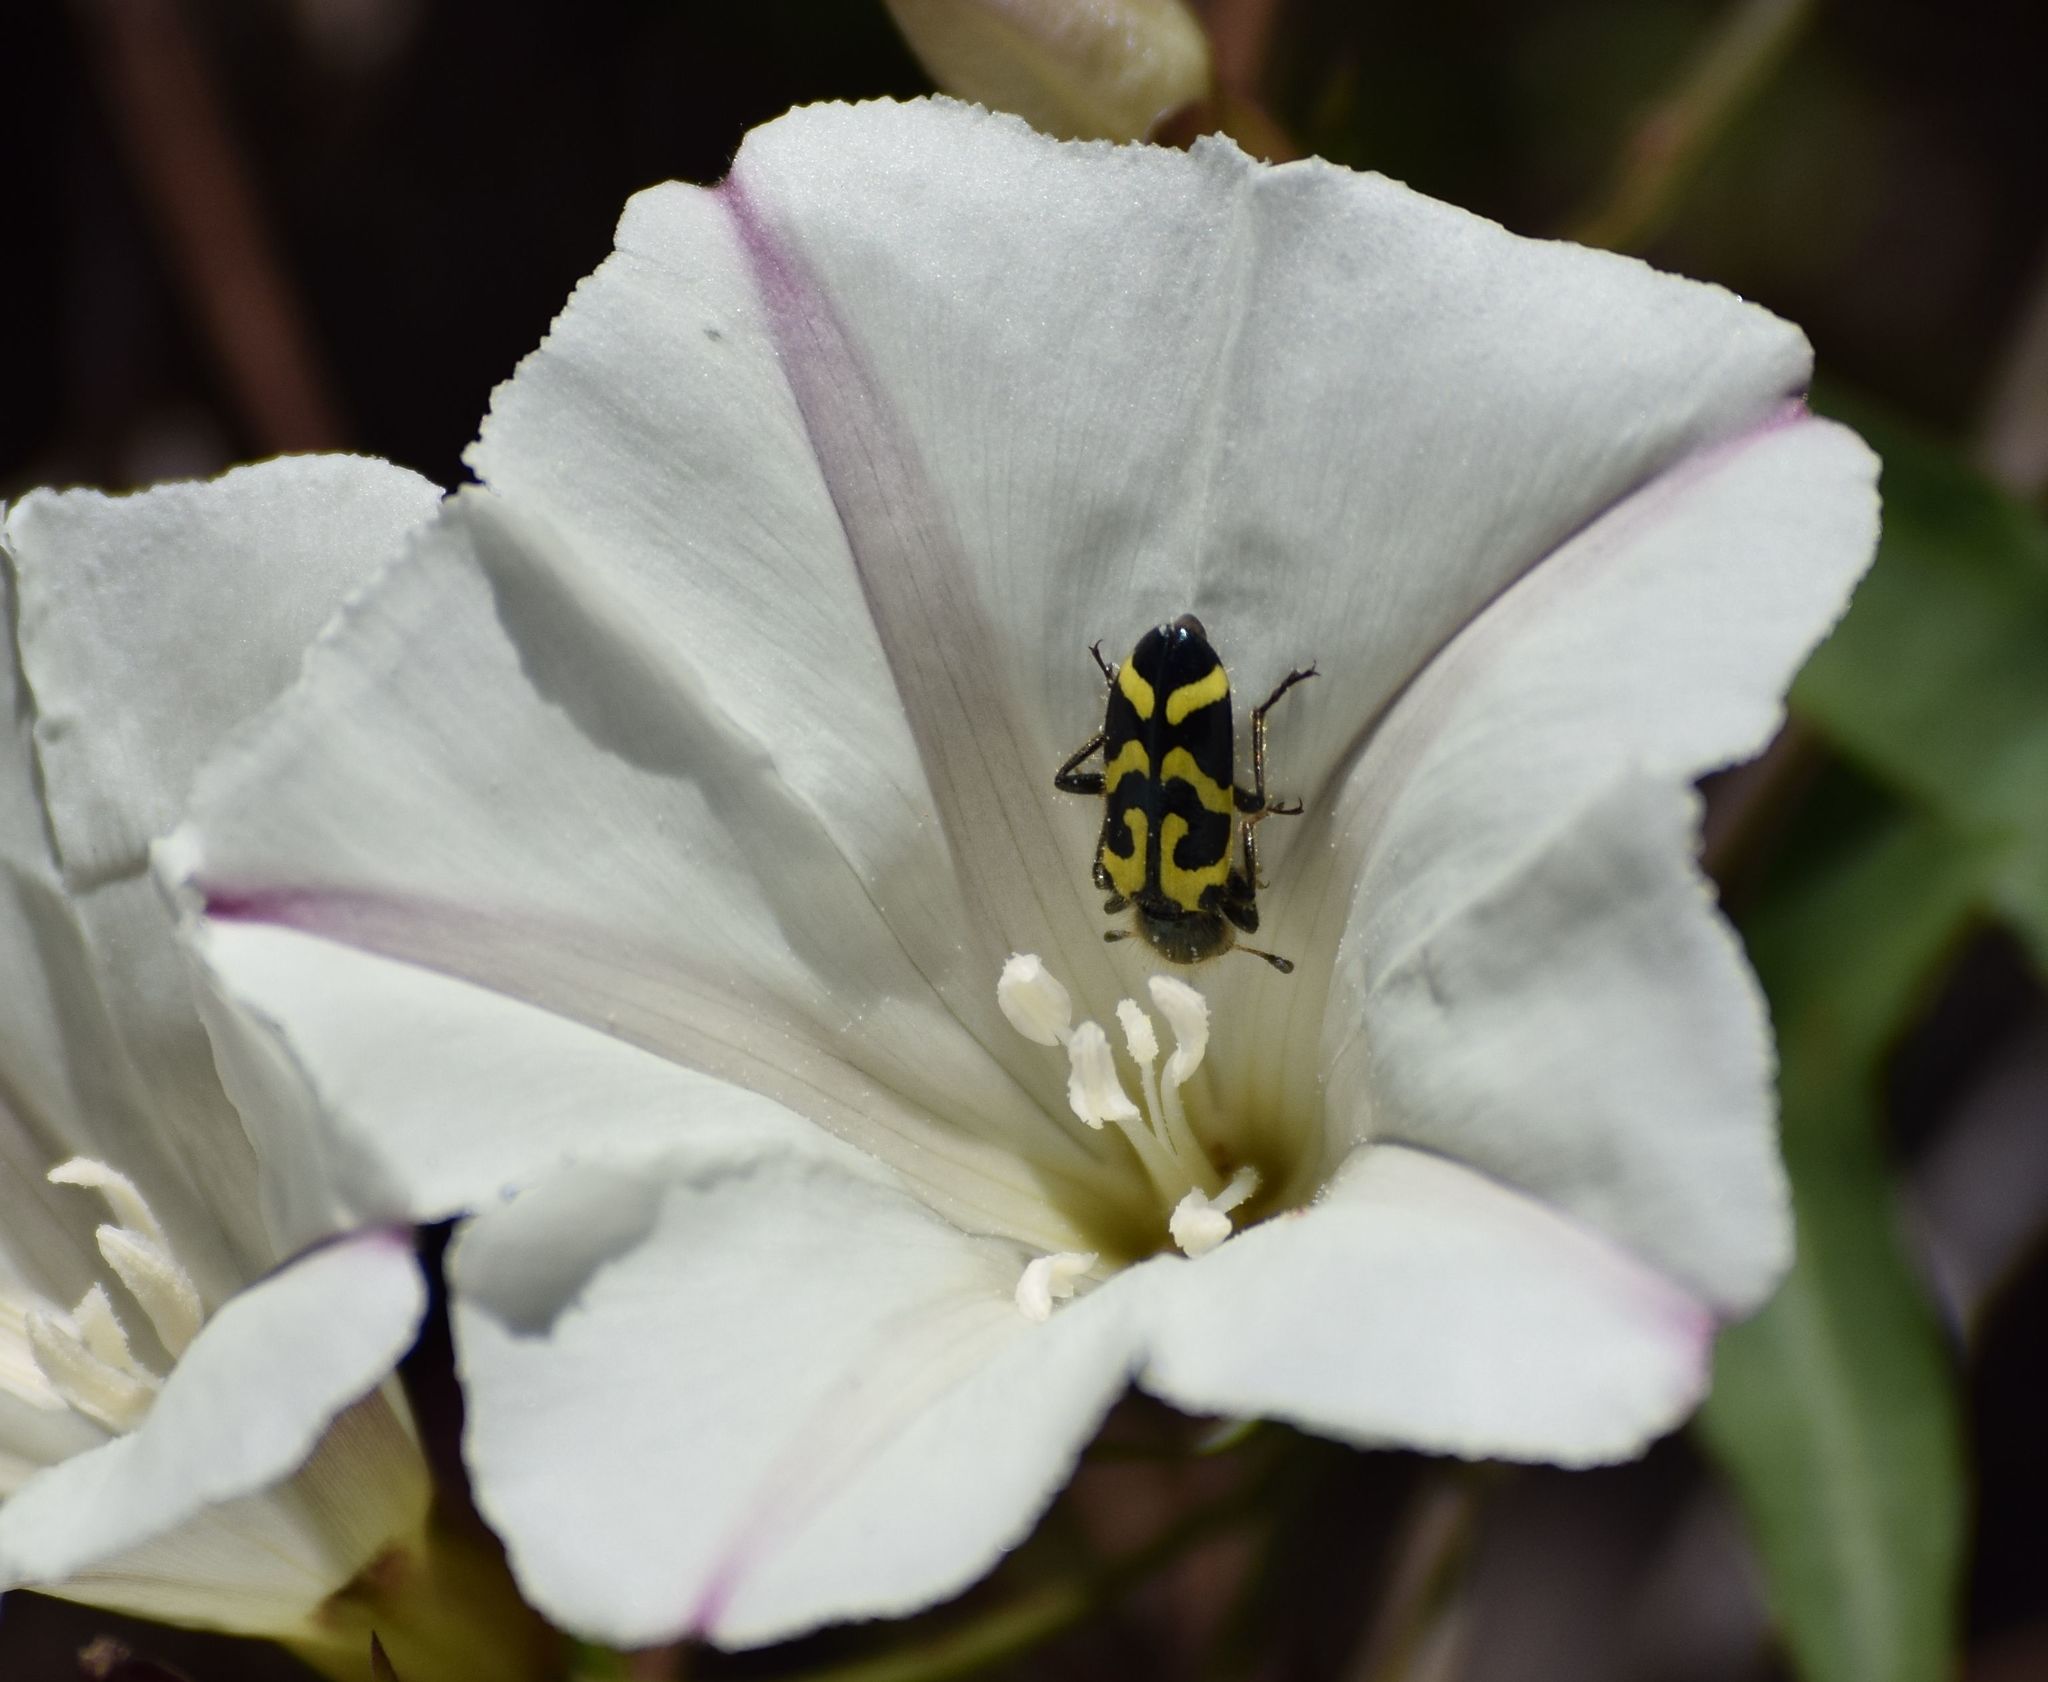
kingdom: Animalia
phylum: Arthropoda
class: Insecta
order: Coleoptera
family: Cleridae
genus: Trichodes
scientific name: Trichodes ornatus
